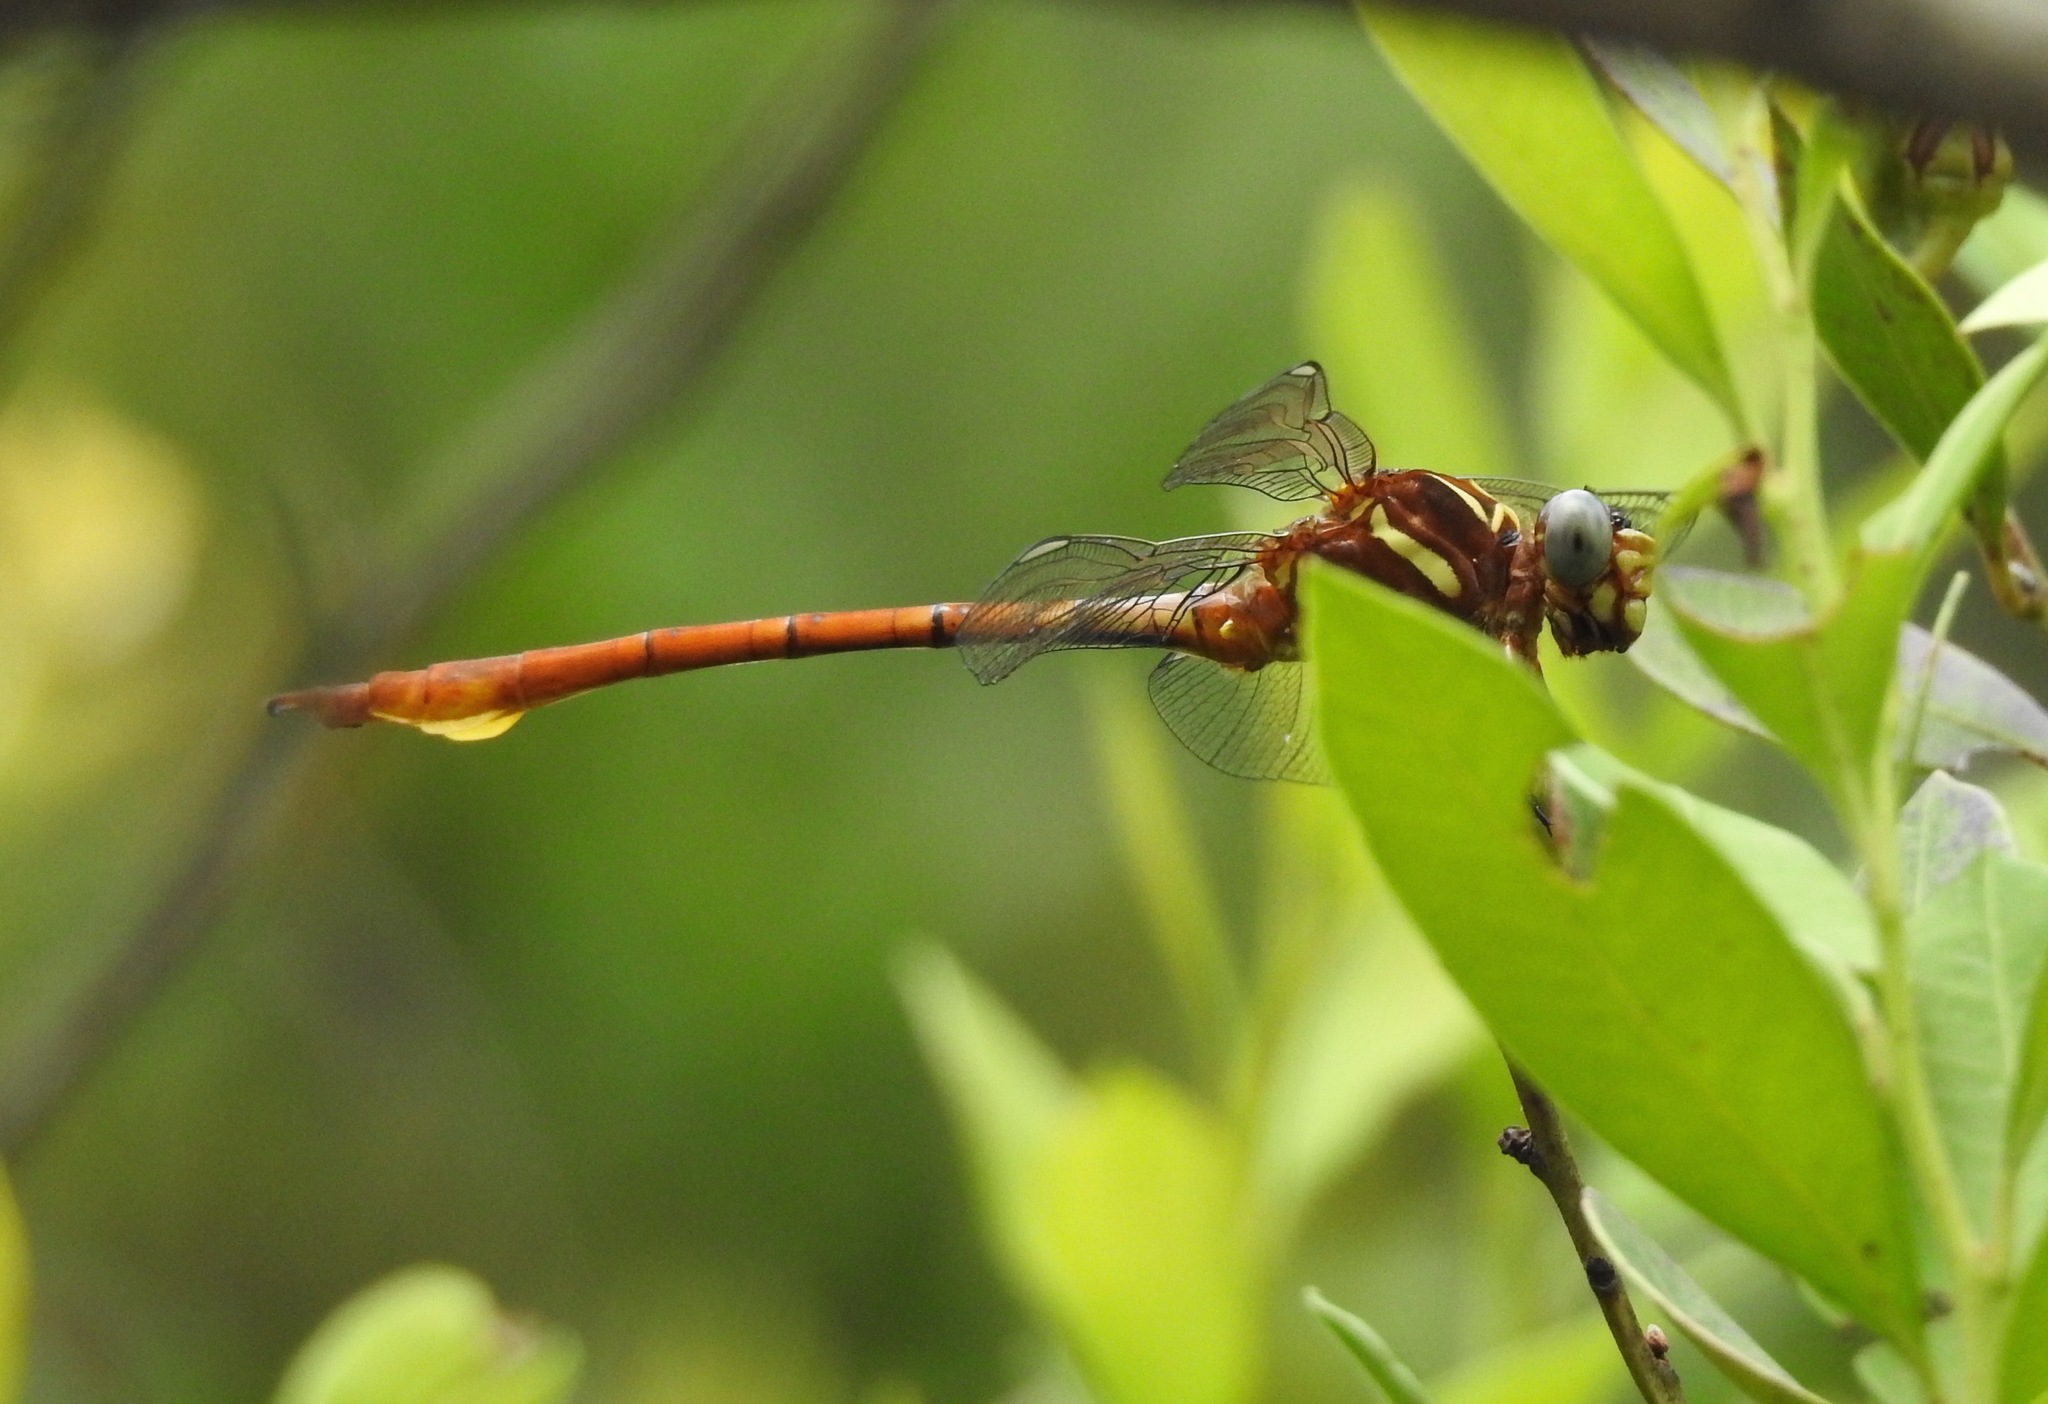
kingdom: Animalia
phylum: Arthropoda
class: Insecta
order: Odonata
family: Gomphidae
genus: Aphylla
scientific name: Aphylla williamsoni
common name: Two-striped forceptail
